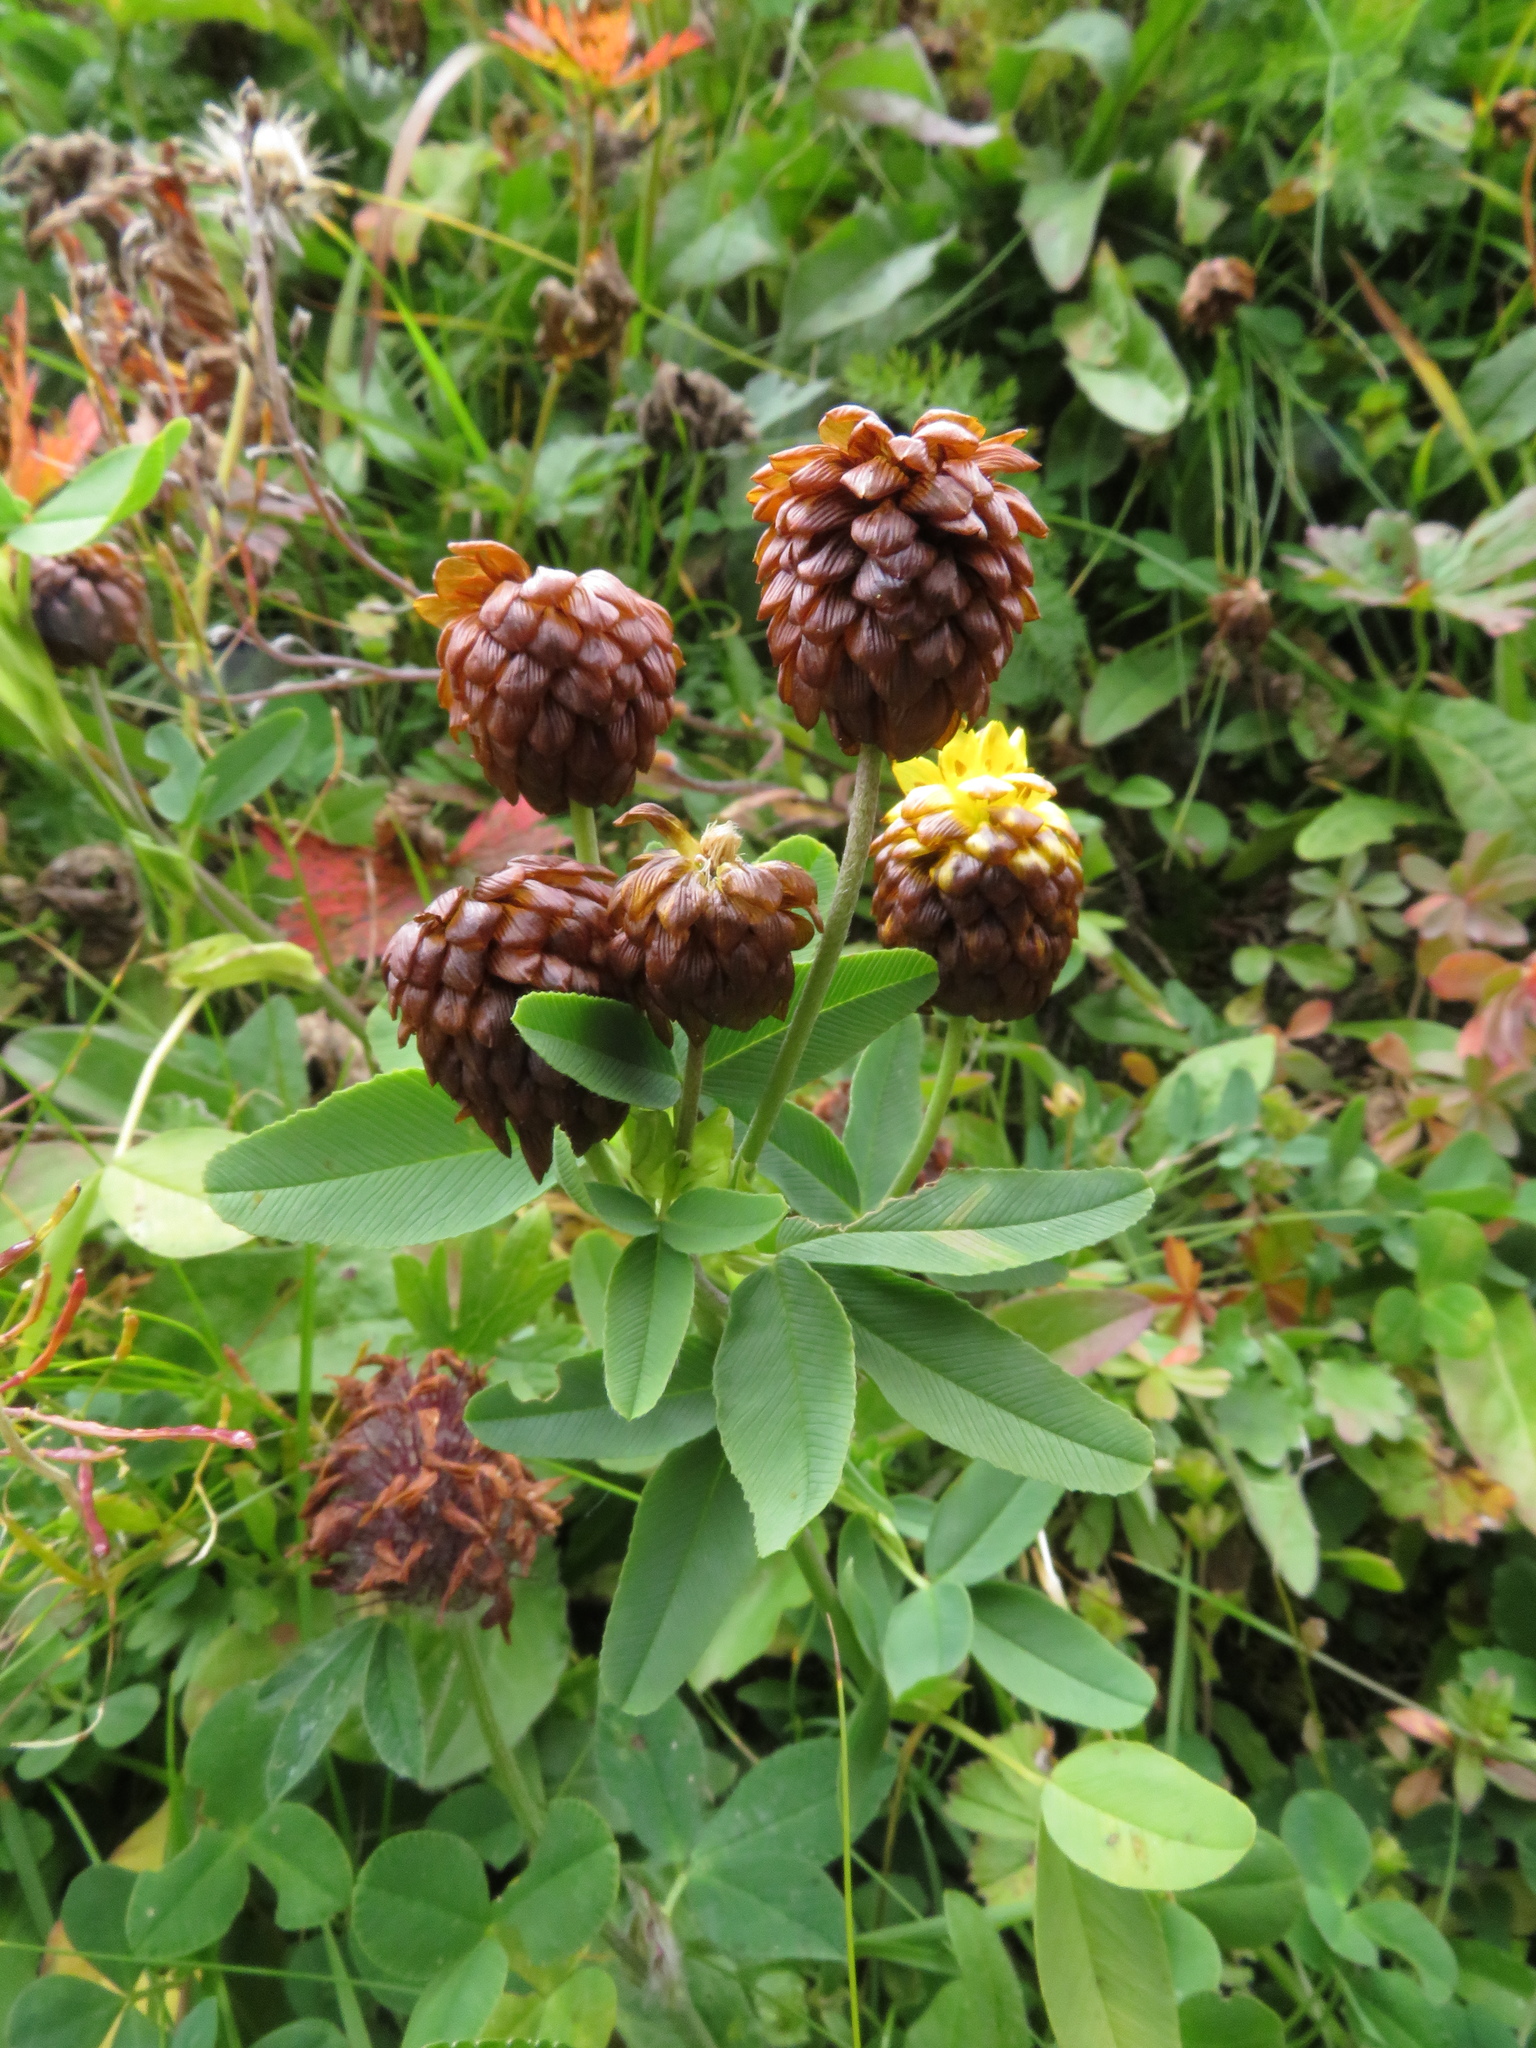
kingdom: Plantae
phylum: Tracheophyta
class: Magnoliopsida
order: Fabales
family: Fabaceae
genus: Trifolium
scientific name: Trifolium badium
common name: Brown clover
